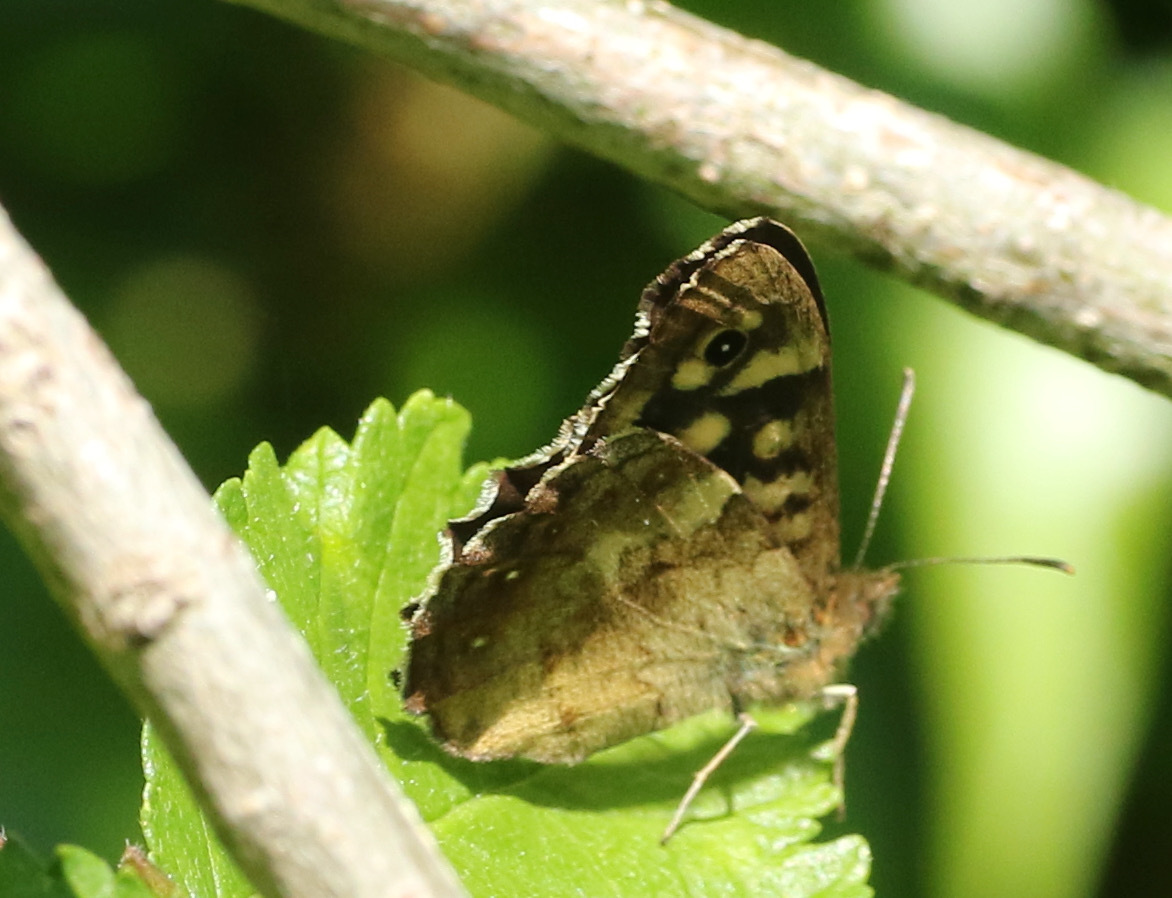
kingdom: Animalia
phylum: Arthropoda
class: Insecta
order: Lepidoptera
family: Nymphalidae
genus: Pararge
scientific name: Pararge aegeria
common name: Speckled wood
